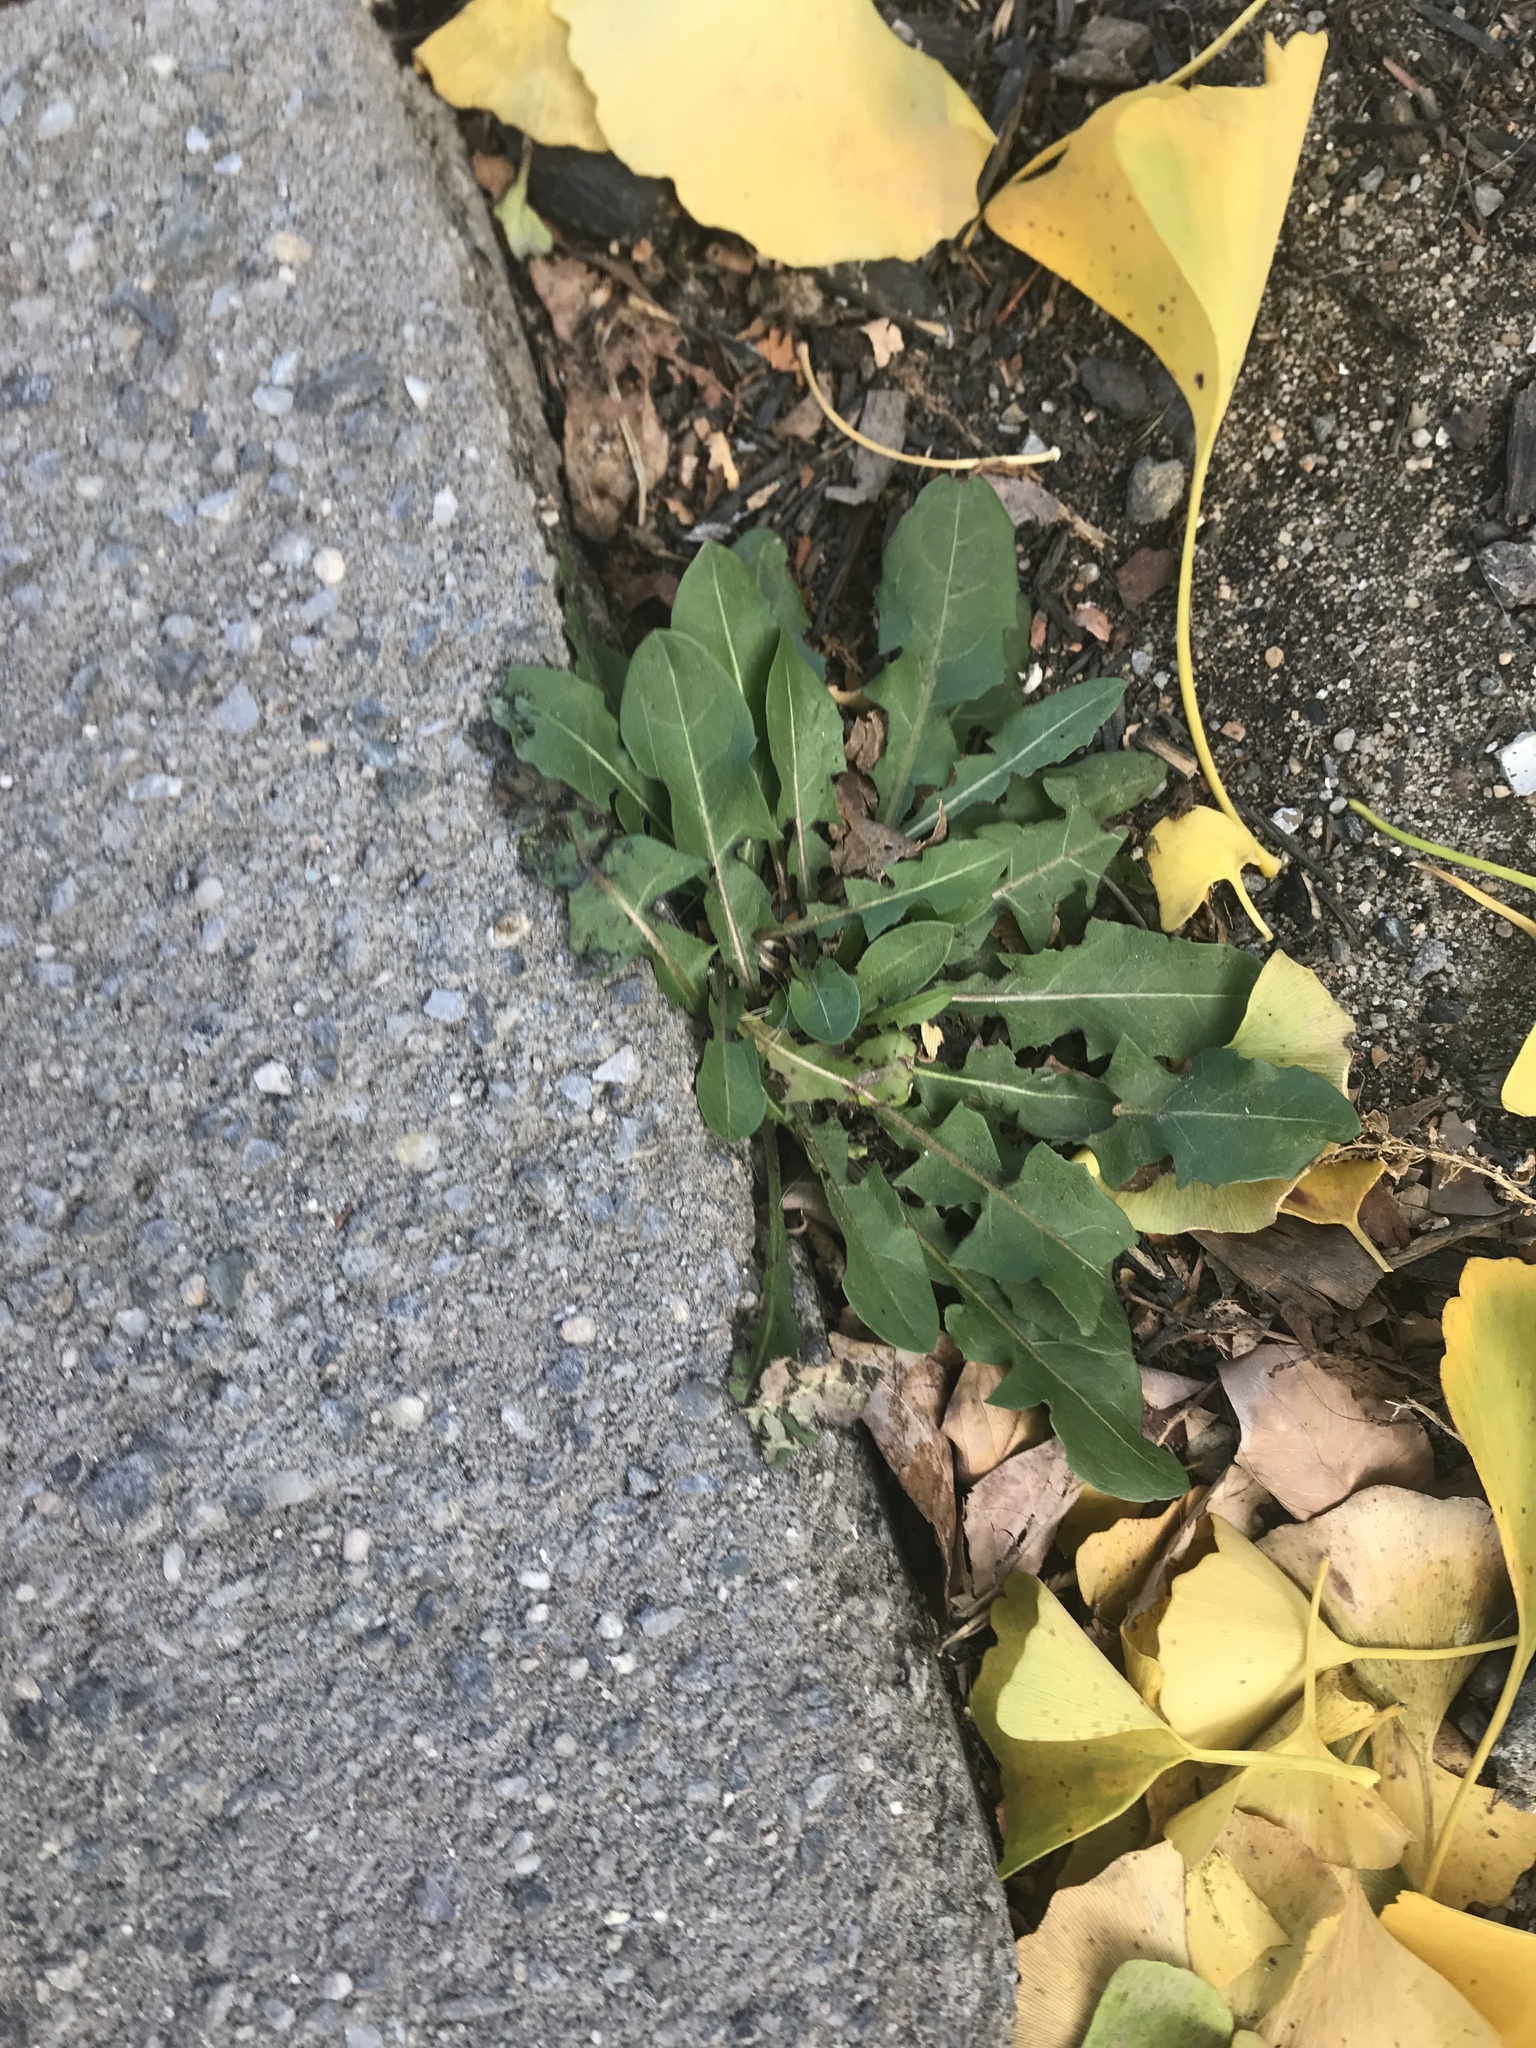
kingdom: Plantae
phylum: Tracheophyta
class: Magnoliopsida
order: Asterales
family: Asteraceae
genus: Taraxacum
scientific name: Taraxacum officinale
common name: Common dandelion
